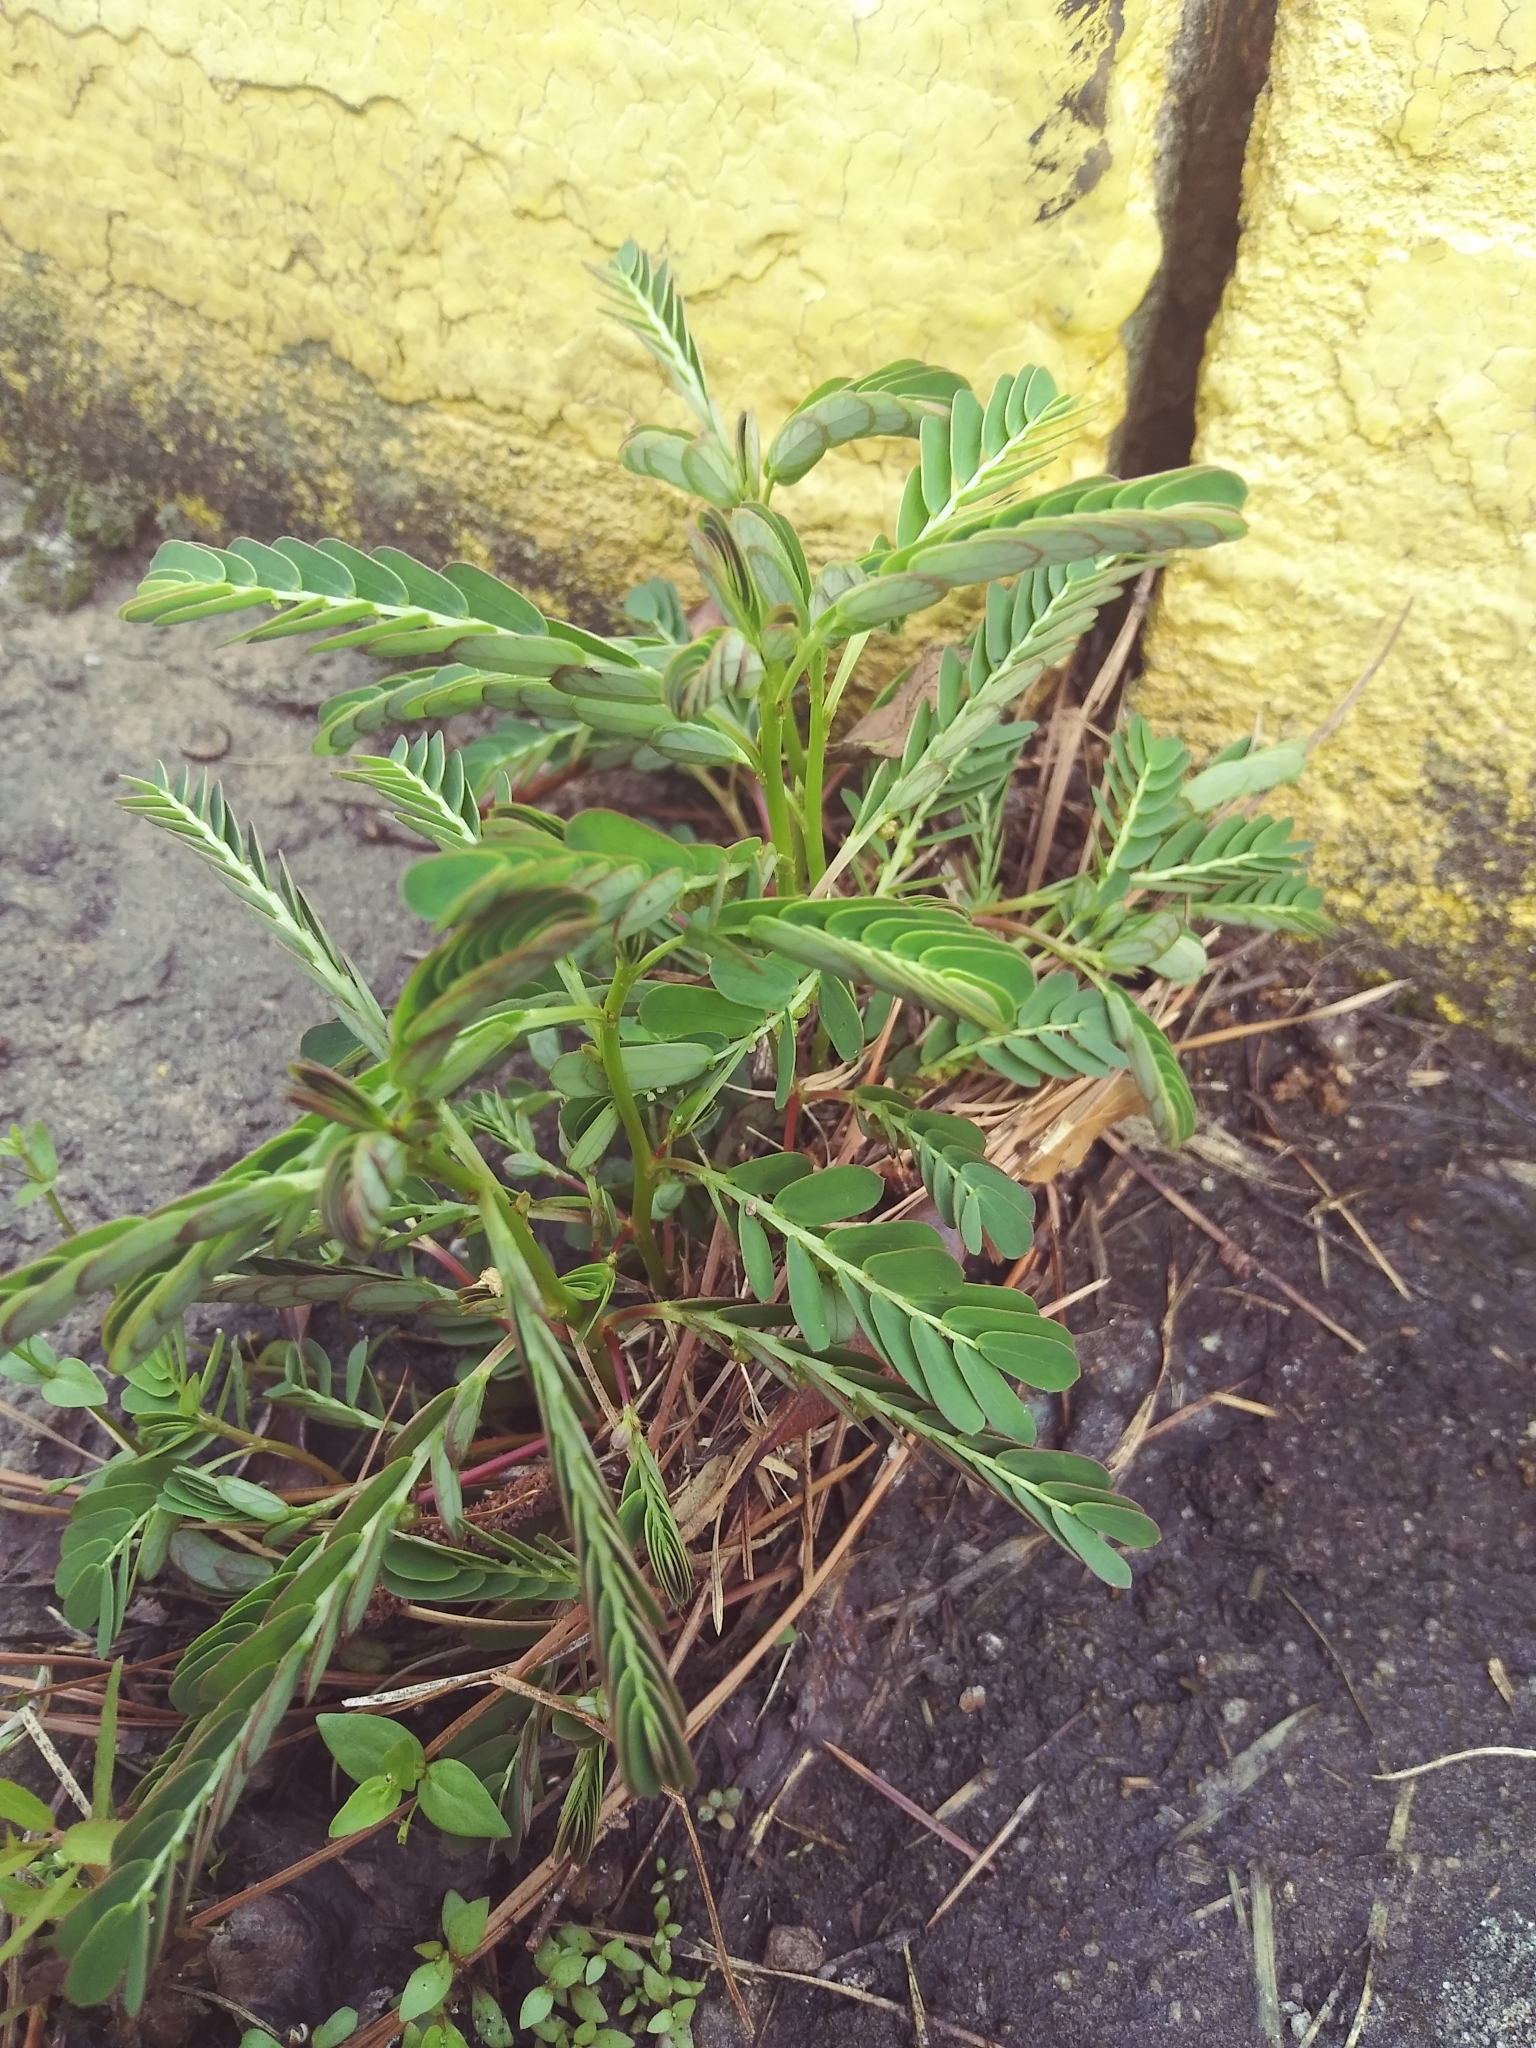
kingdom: Plantae
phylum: Tracheophyta
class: Magnoliopsida
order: Malpighiales
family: Phyllanthaceae
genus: Phyllanthus
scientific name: Phyllanthus urinaria
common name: Chamber bitter
